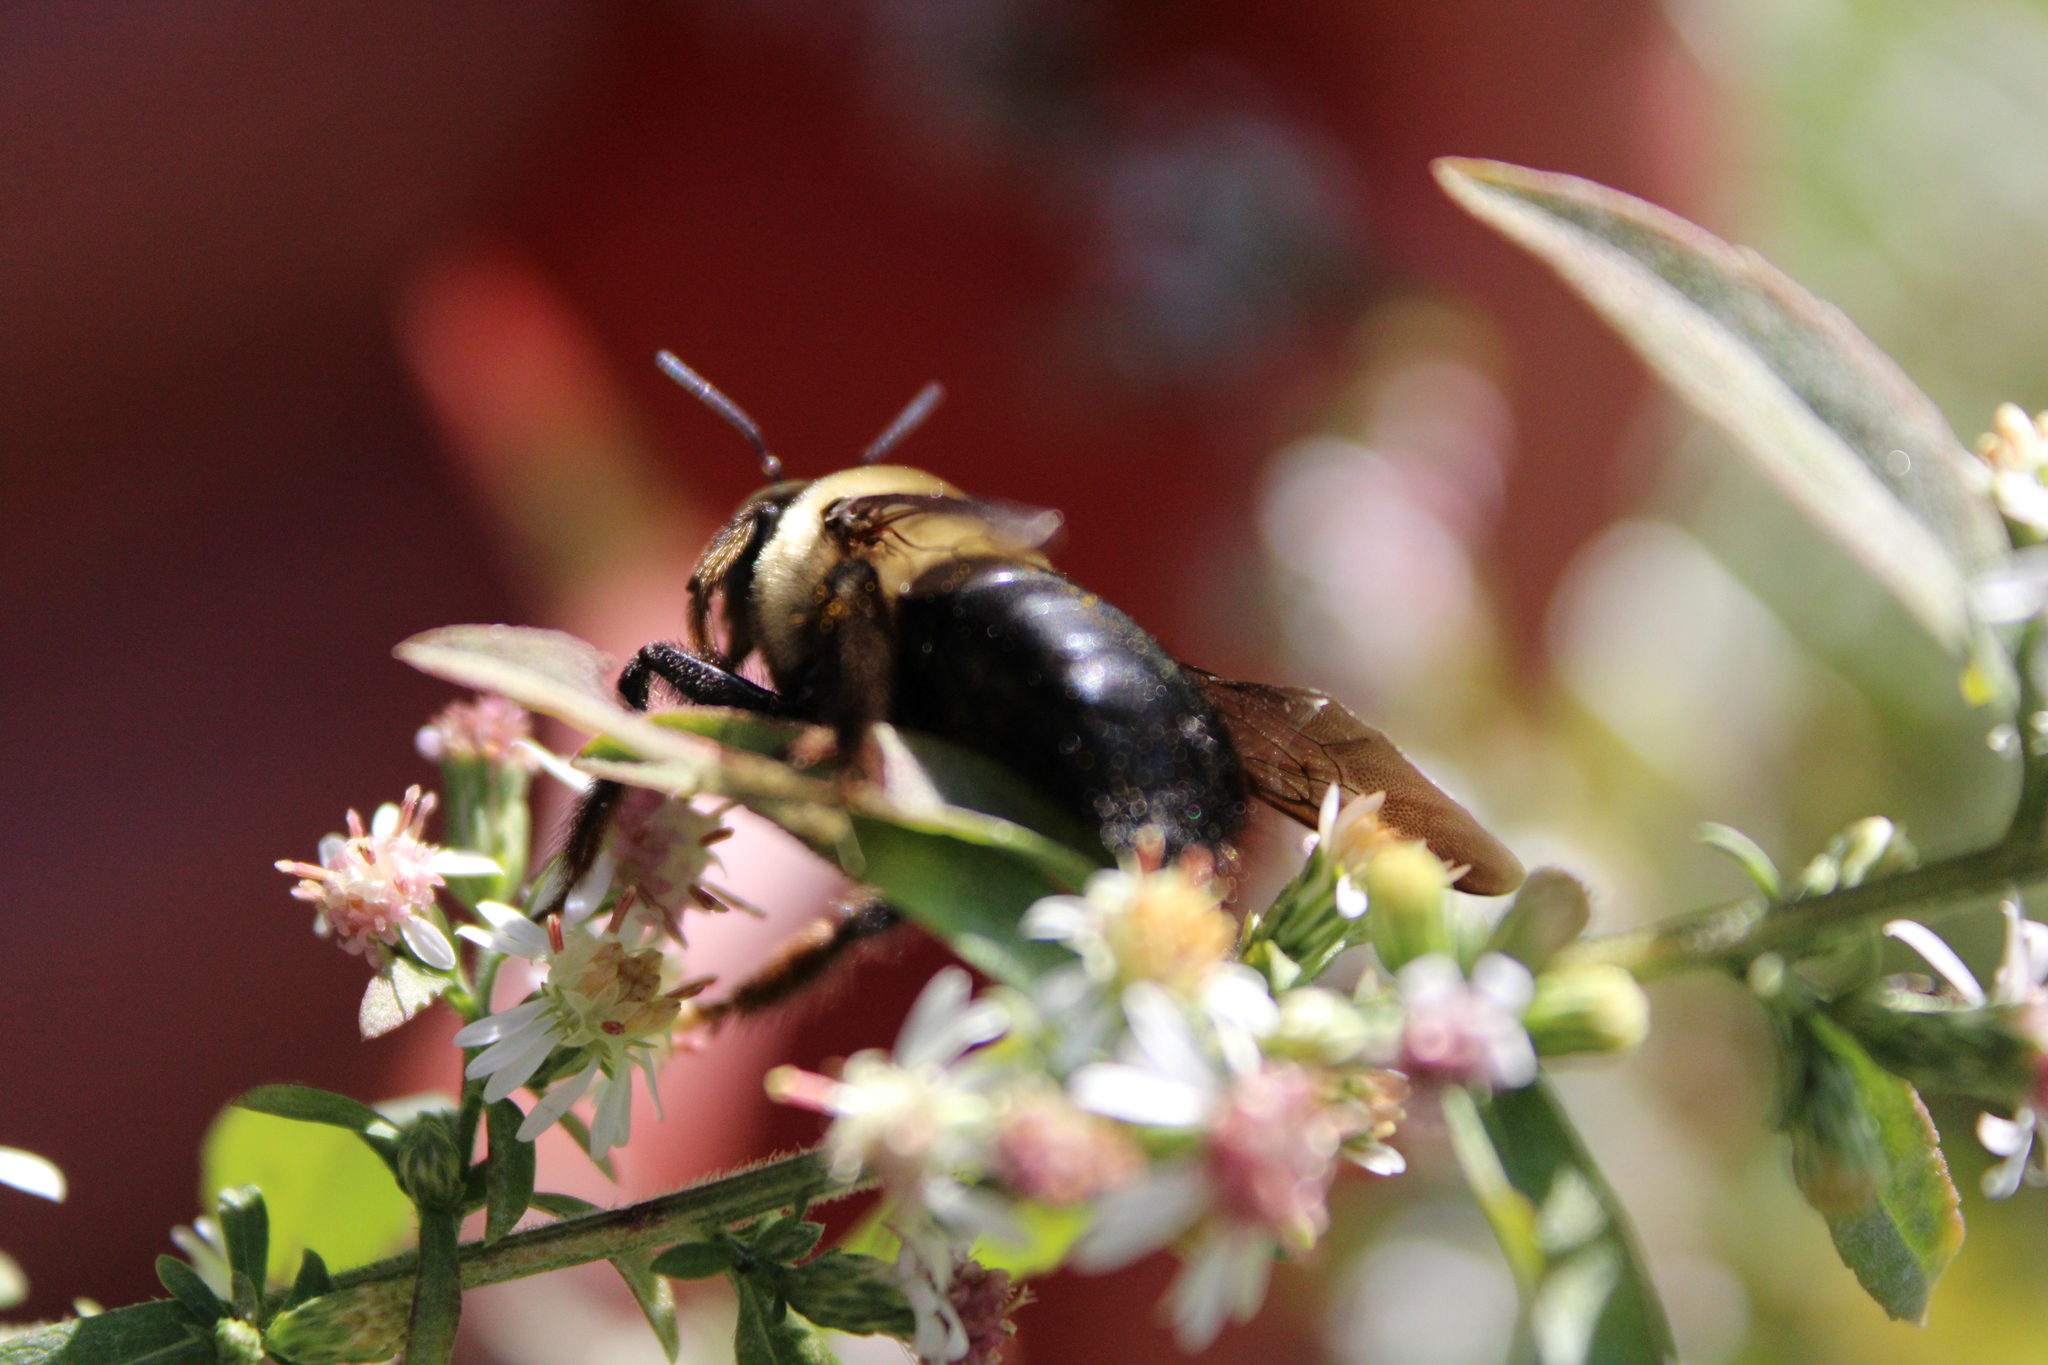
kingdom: Animalia
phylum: Arthropoda
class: Insecta
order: Hymenoptera
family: Apidae
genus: Xylocopa
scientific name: Xylocopa virginica
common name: Carpenter bee
